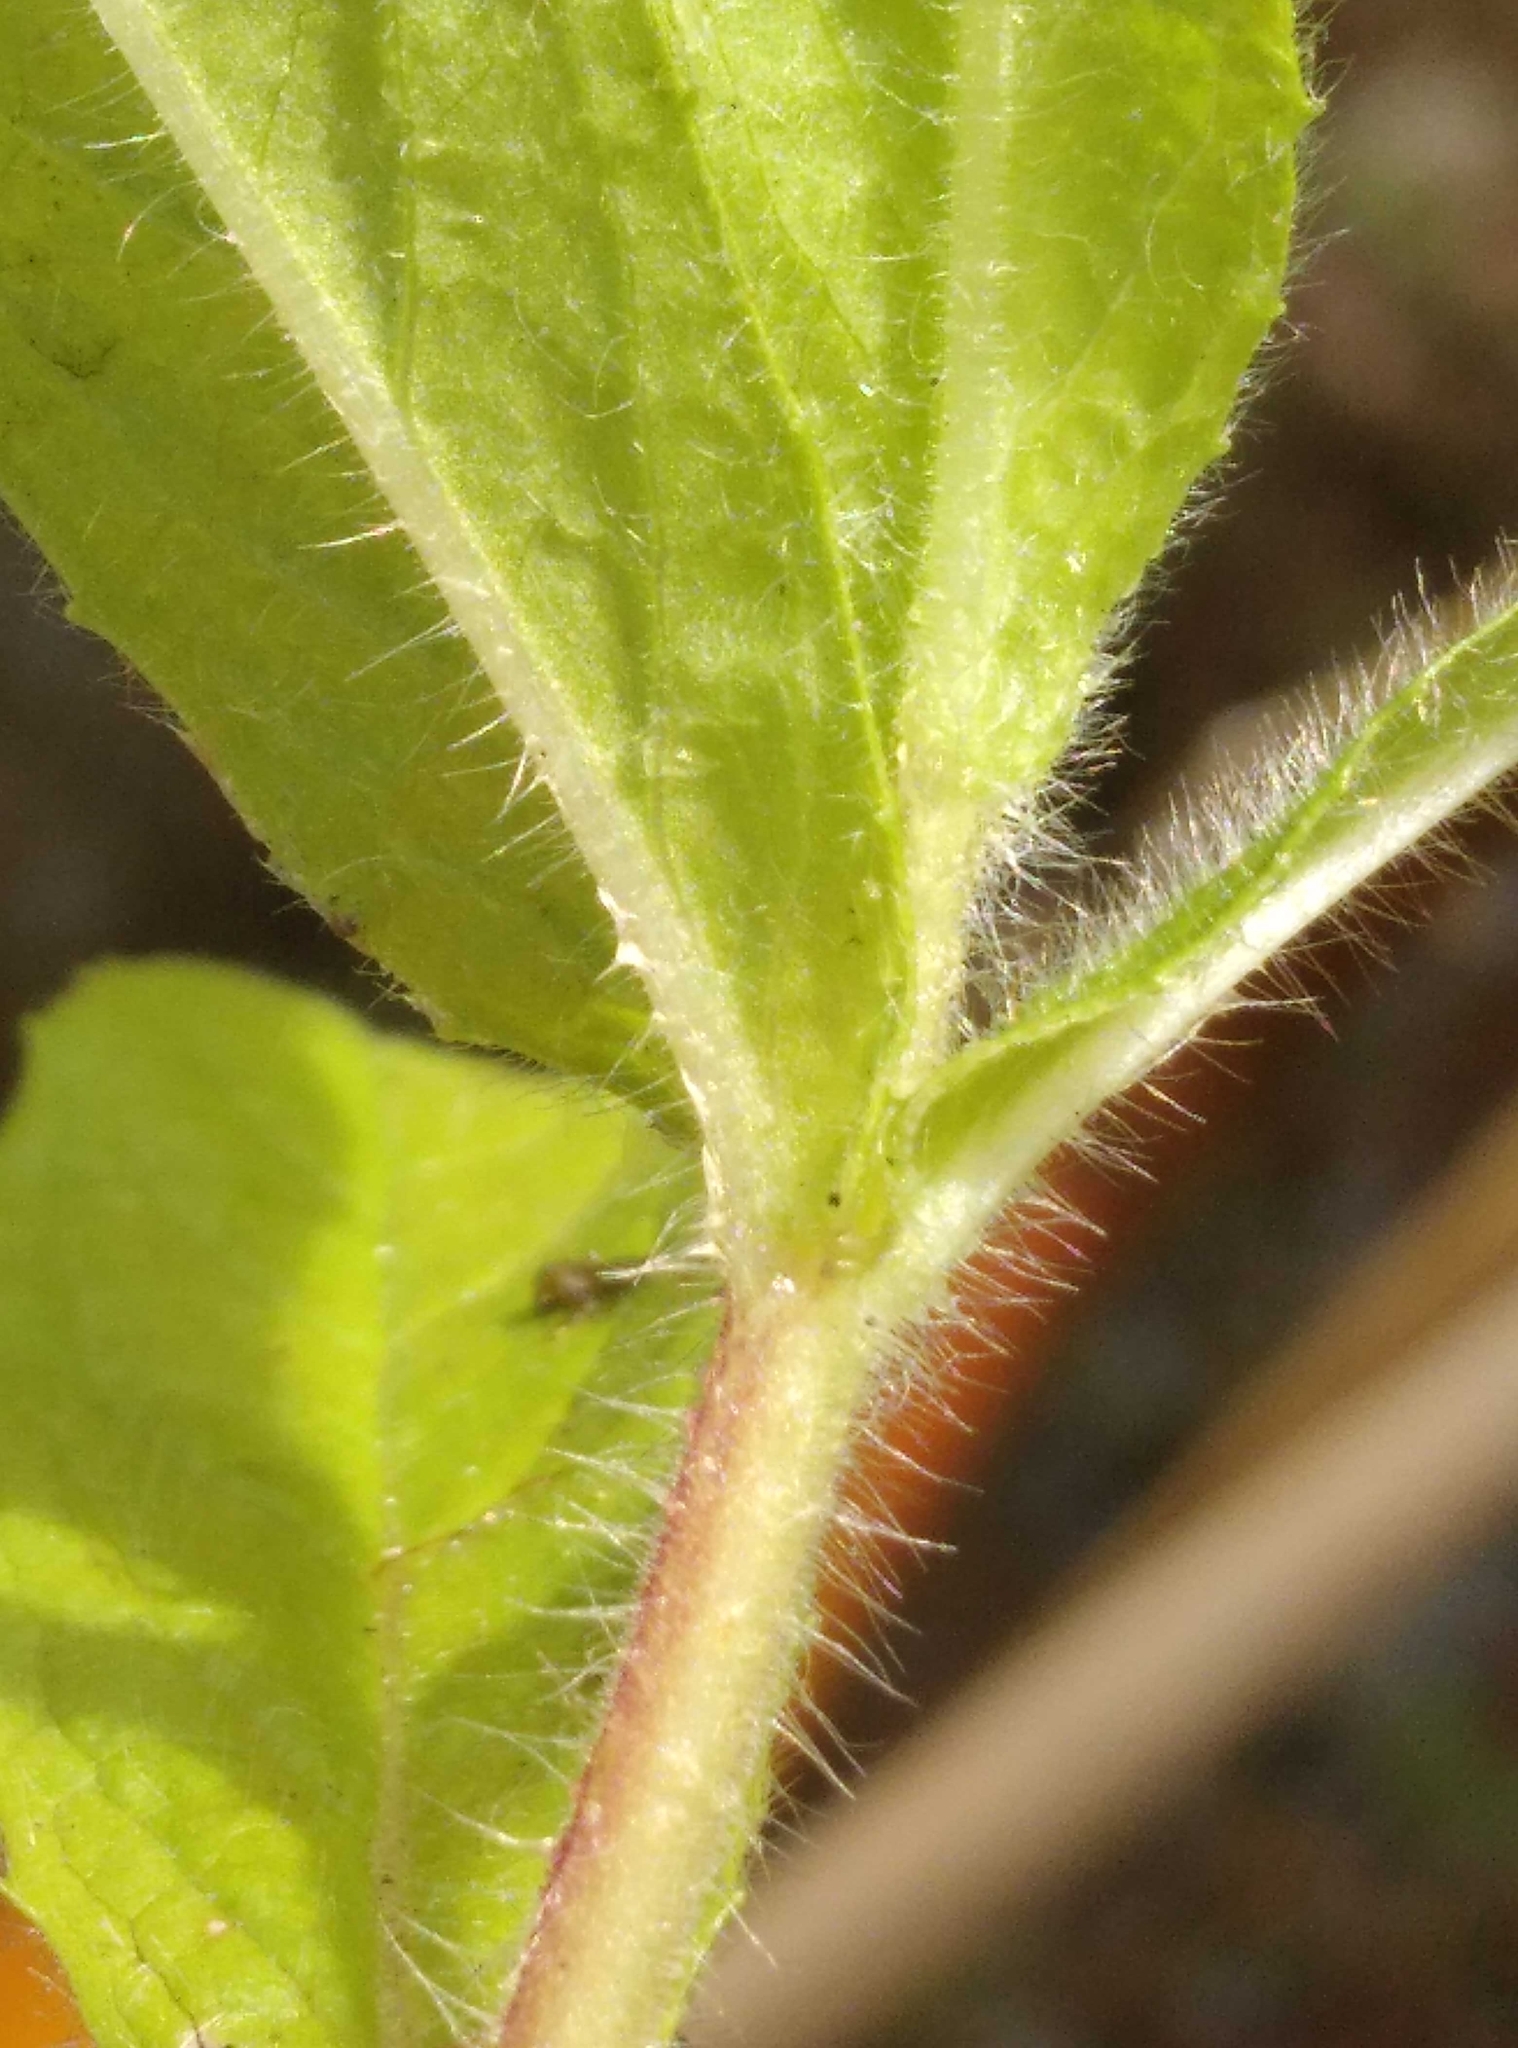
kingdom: Plantae
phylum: Tracheophyta
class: Magnoliopsida
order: Myrtales
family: Onagraceae
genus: Epilobium
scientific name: Epilobium hirsutum
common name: Great willowherb
